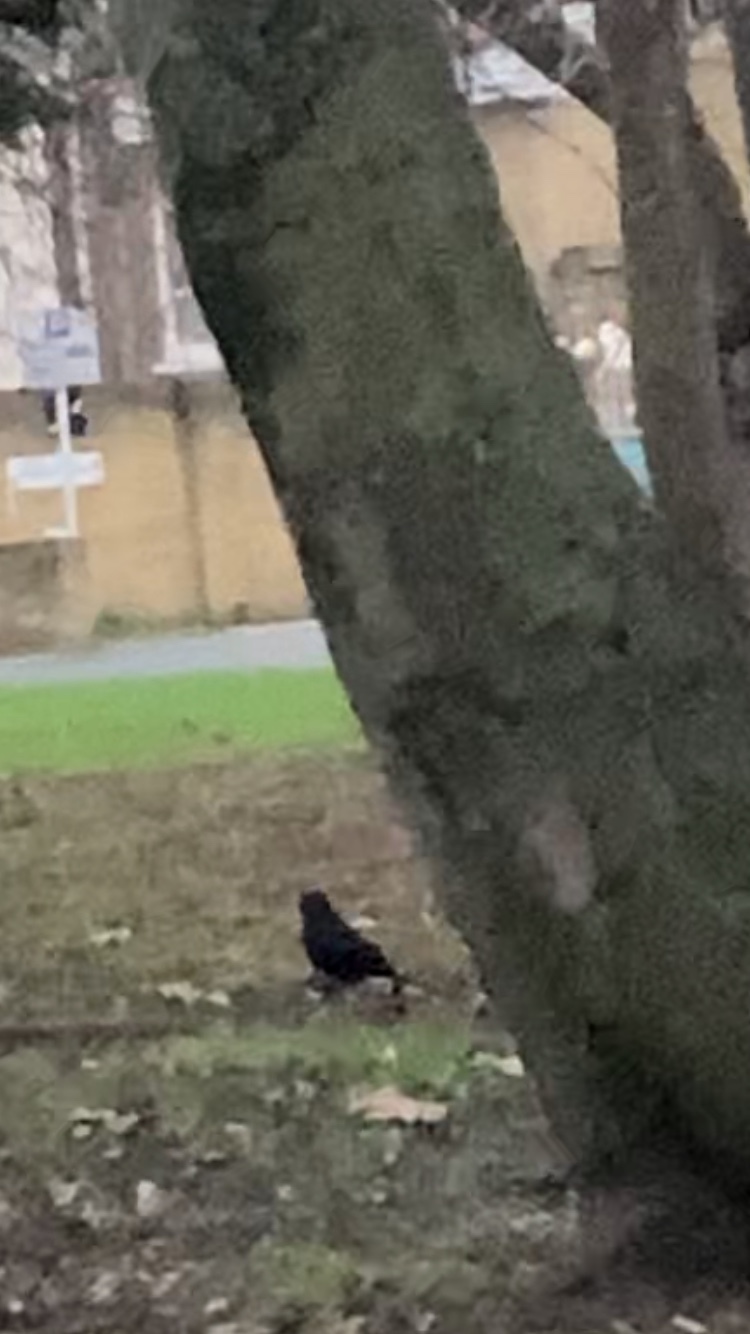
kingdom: Animalia
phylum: Chordata
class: Aves
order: Passeriformes
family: Turdidae
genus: Turdus
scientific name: Turdus merula
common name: Common blackbird
